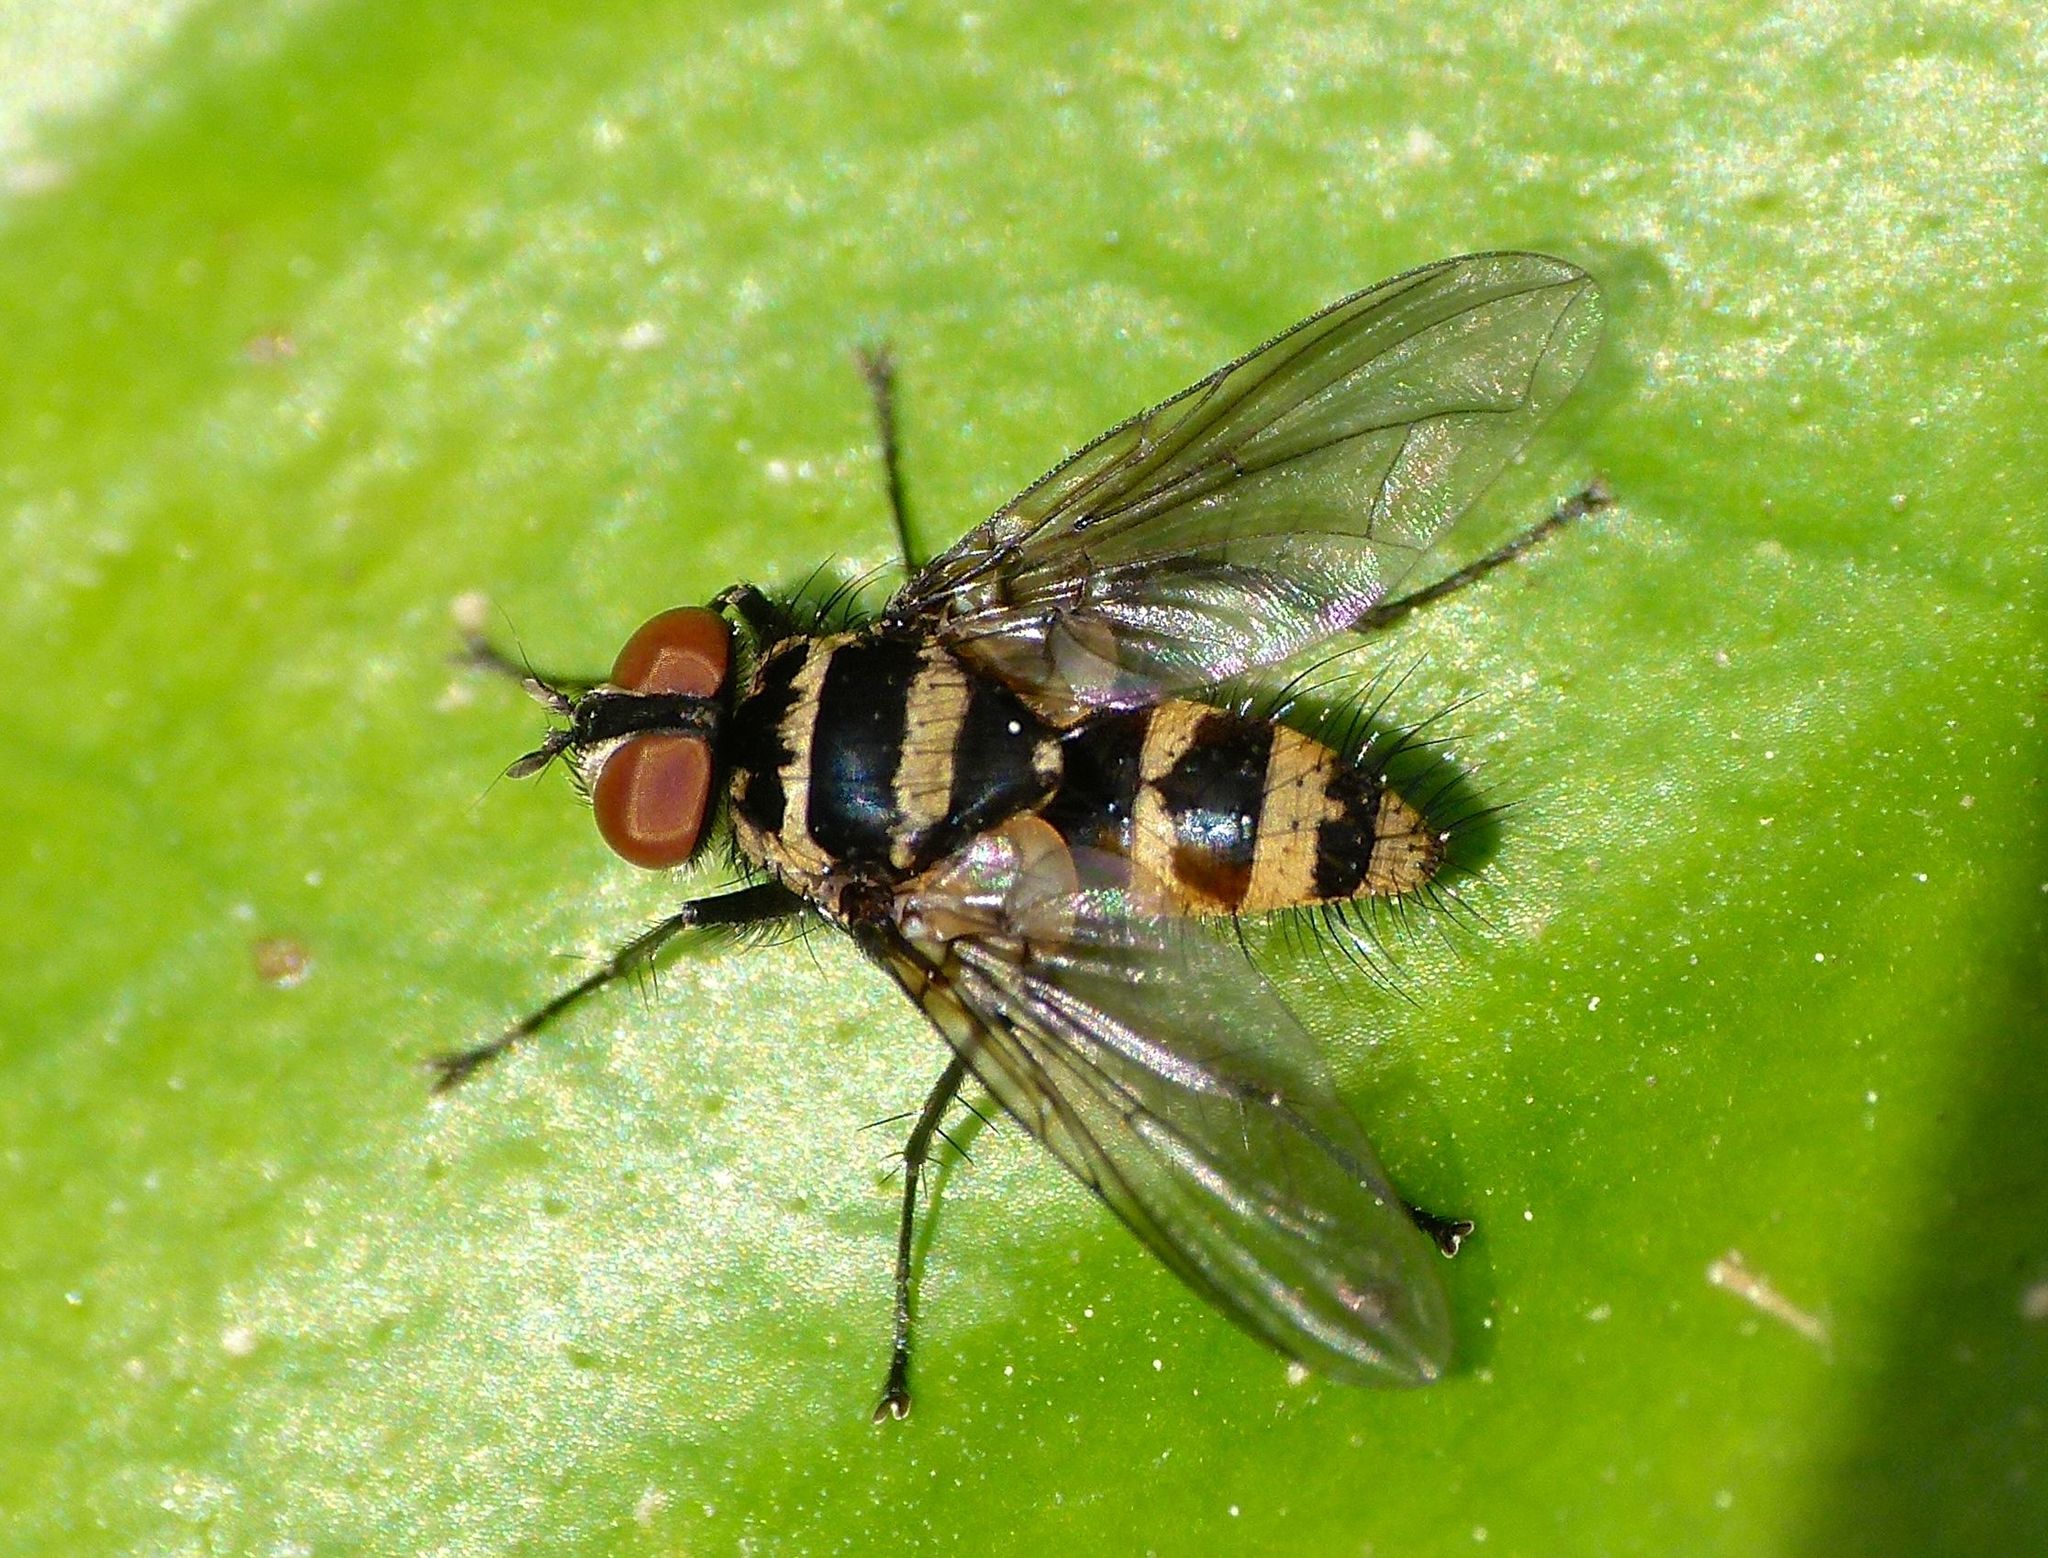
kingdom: Animalia
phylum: Arthropoda
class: Insecta
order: Diptera
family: Tachinidae
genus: Trigonospila
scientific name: Trigonospila brevifacies
